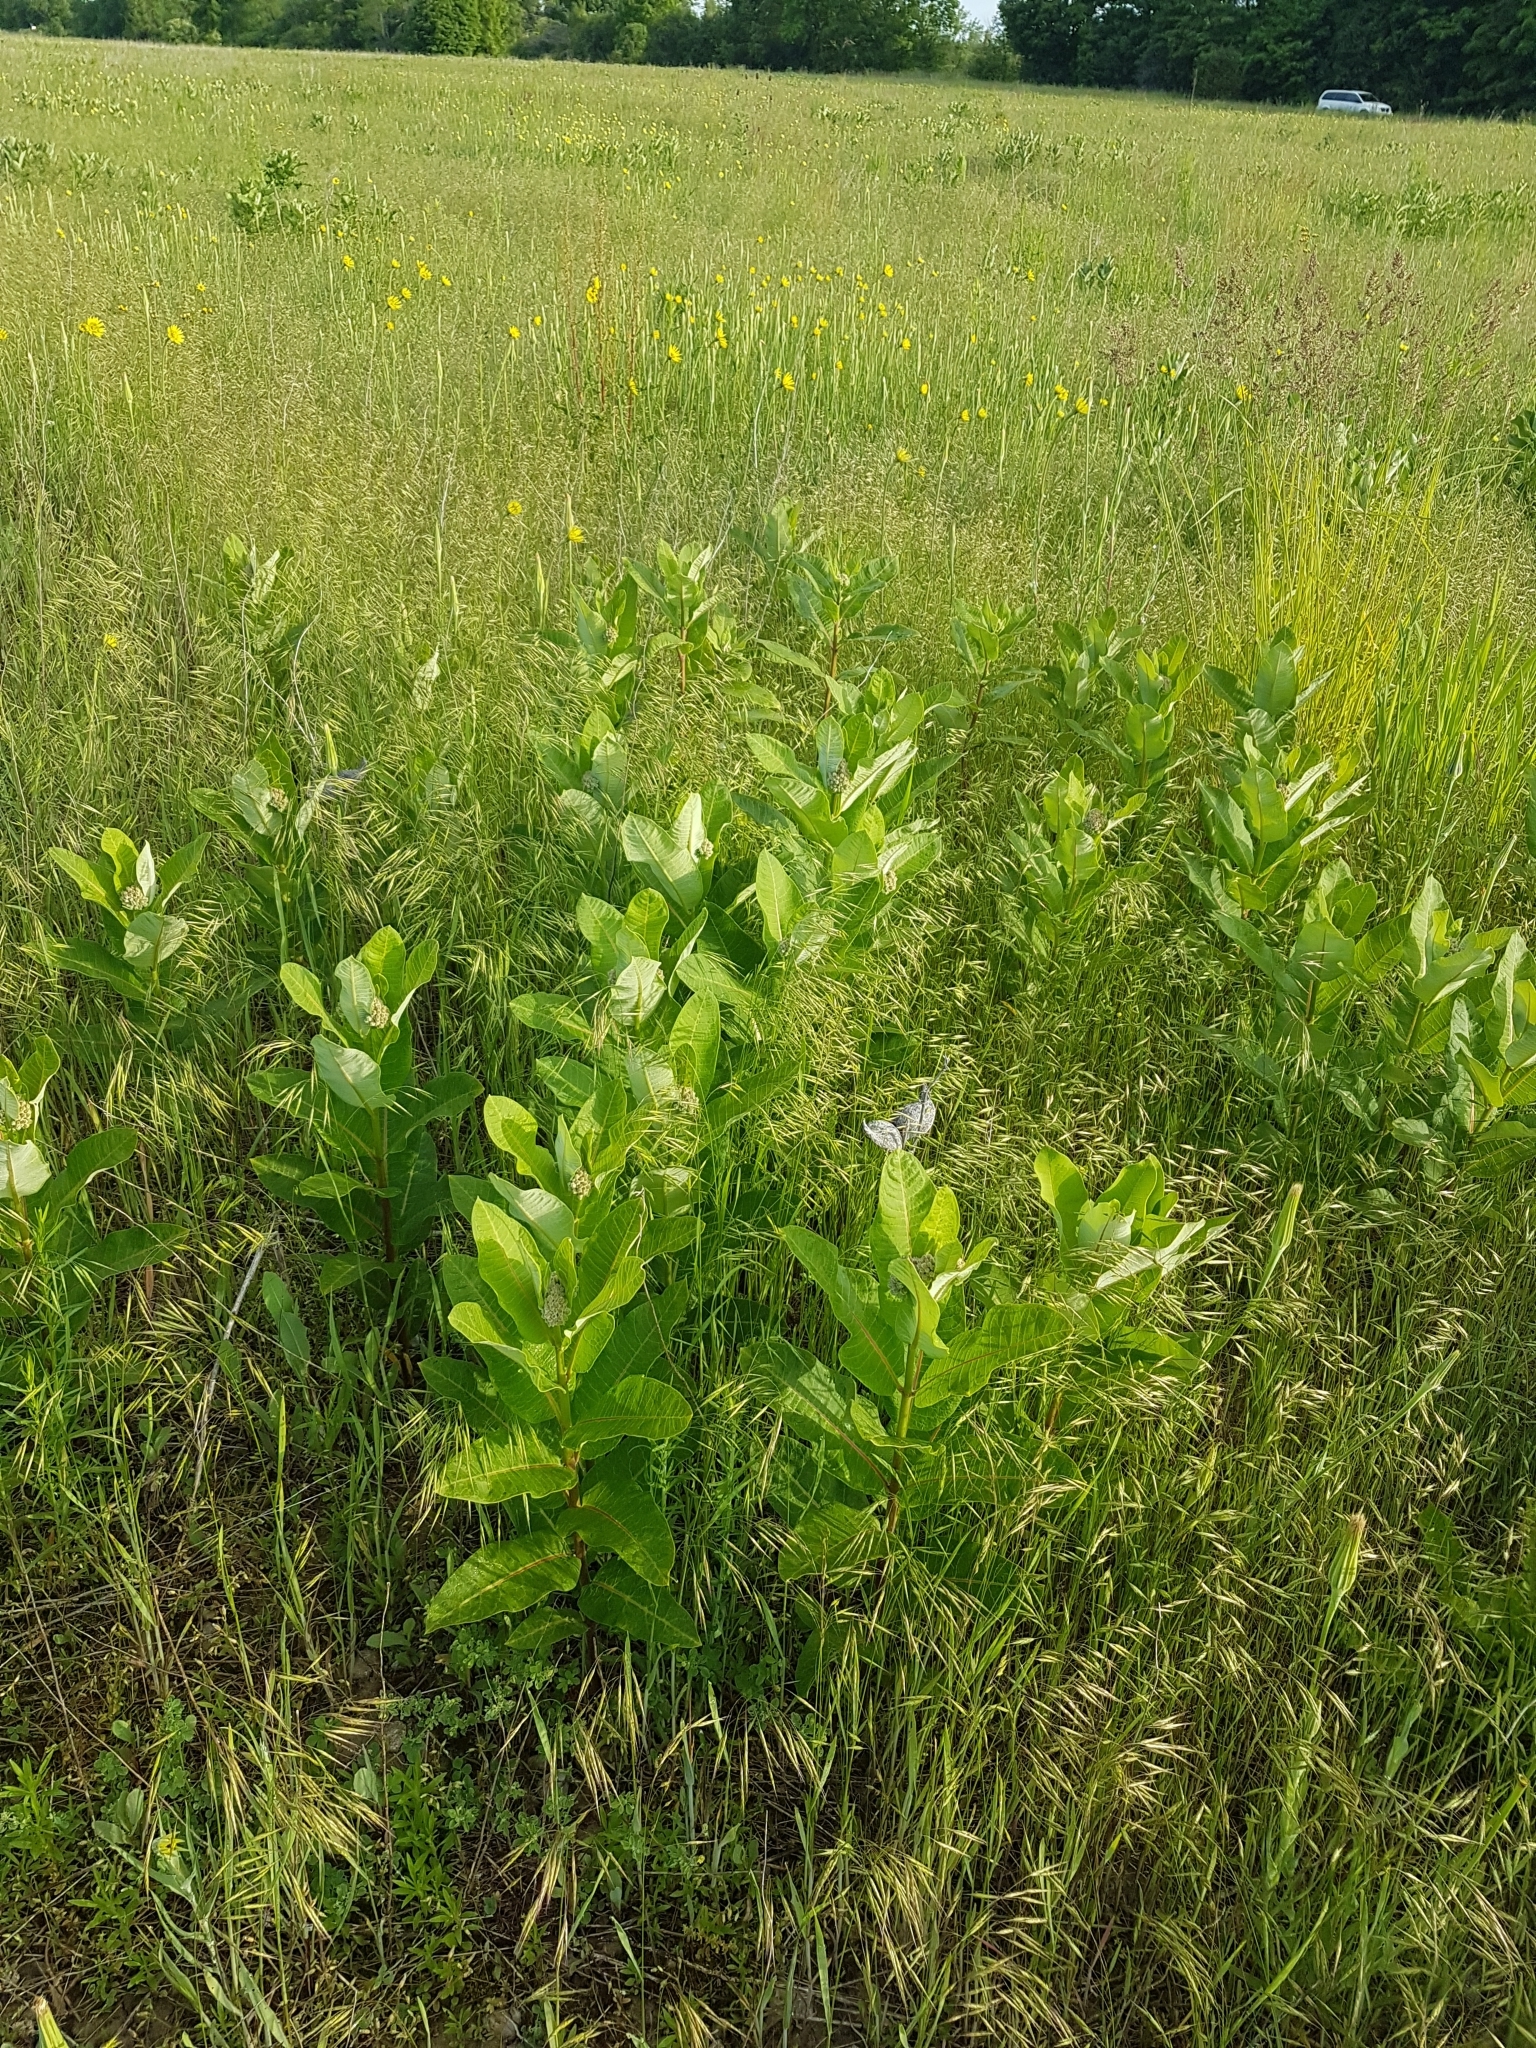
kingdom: Plantae
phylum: Tracheophyta
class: Magnoliopsida
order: Gentianales
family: Apocynaceae
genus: Asclepias
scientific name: Asclepias syriaca
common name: Common milkweed
